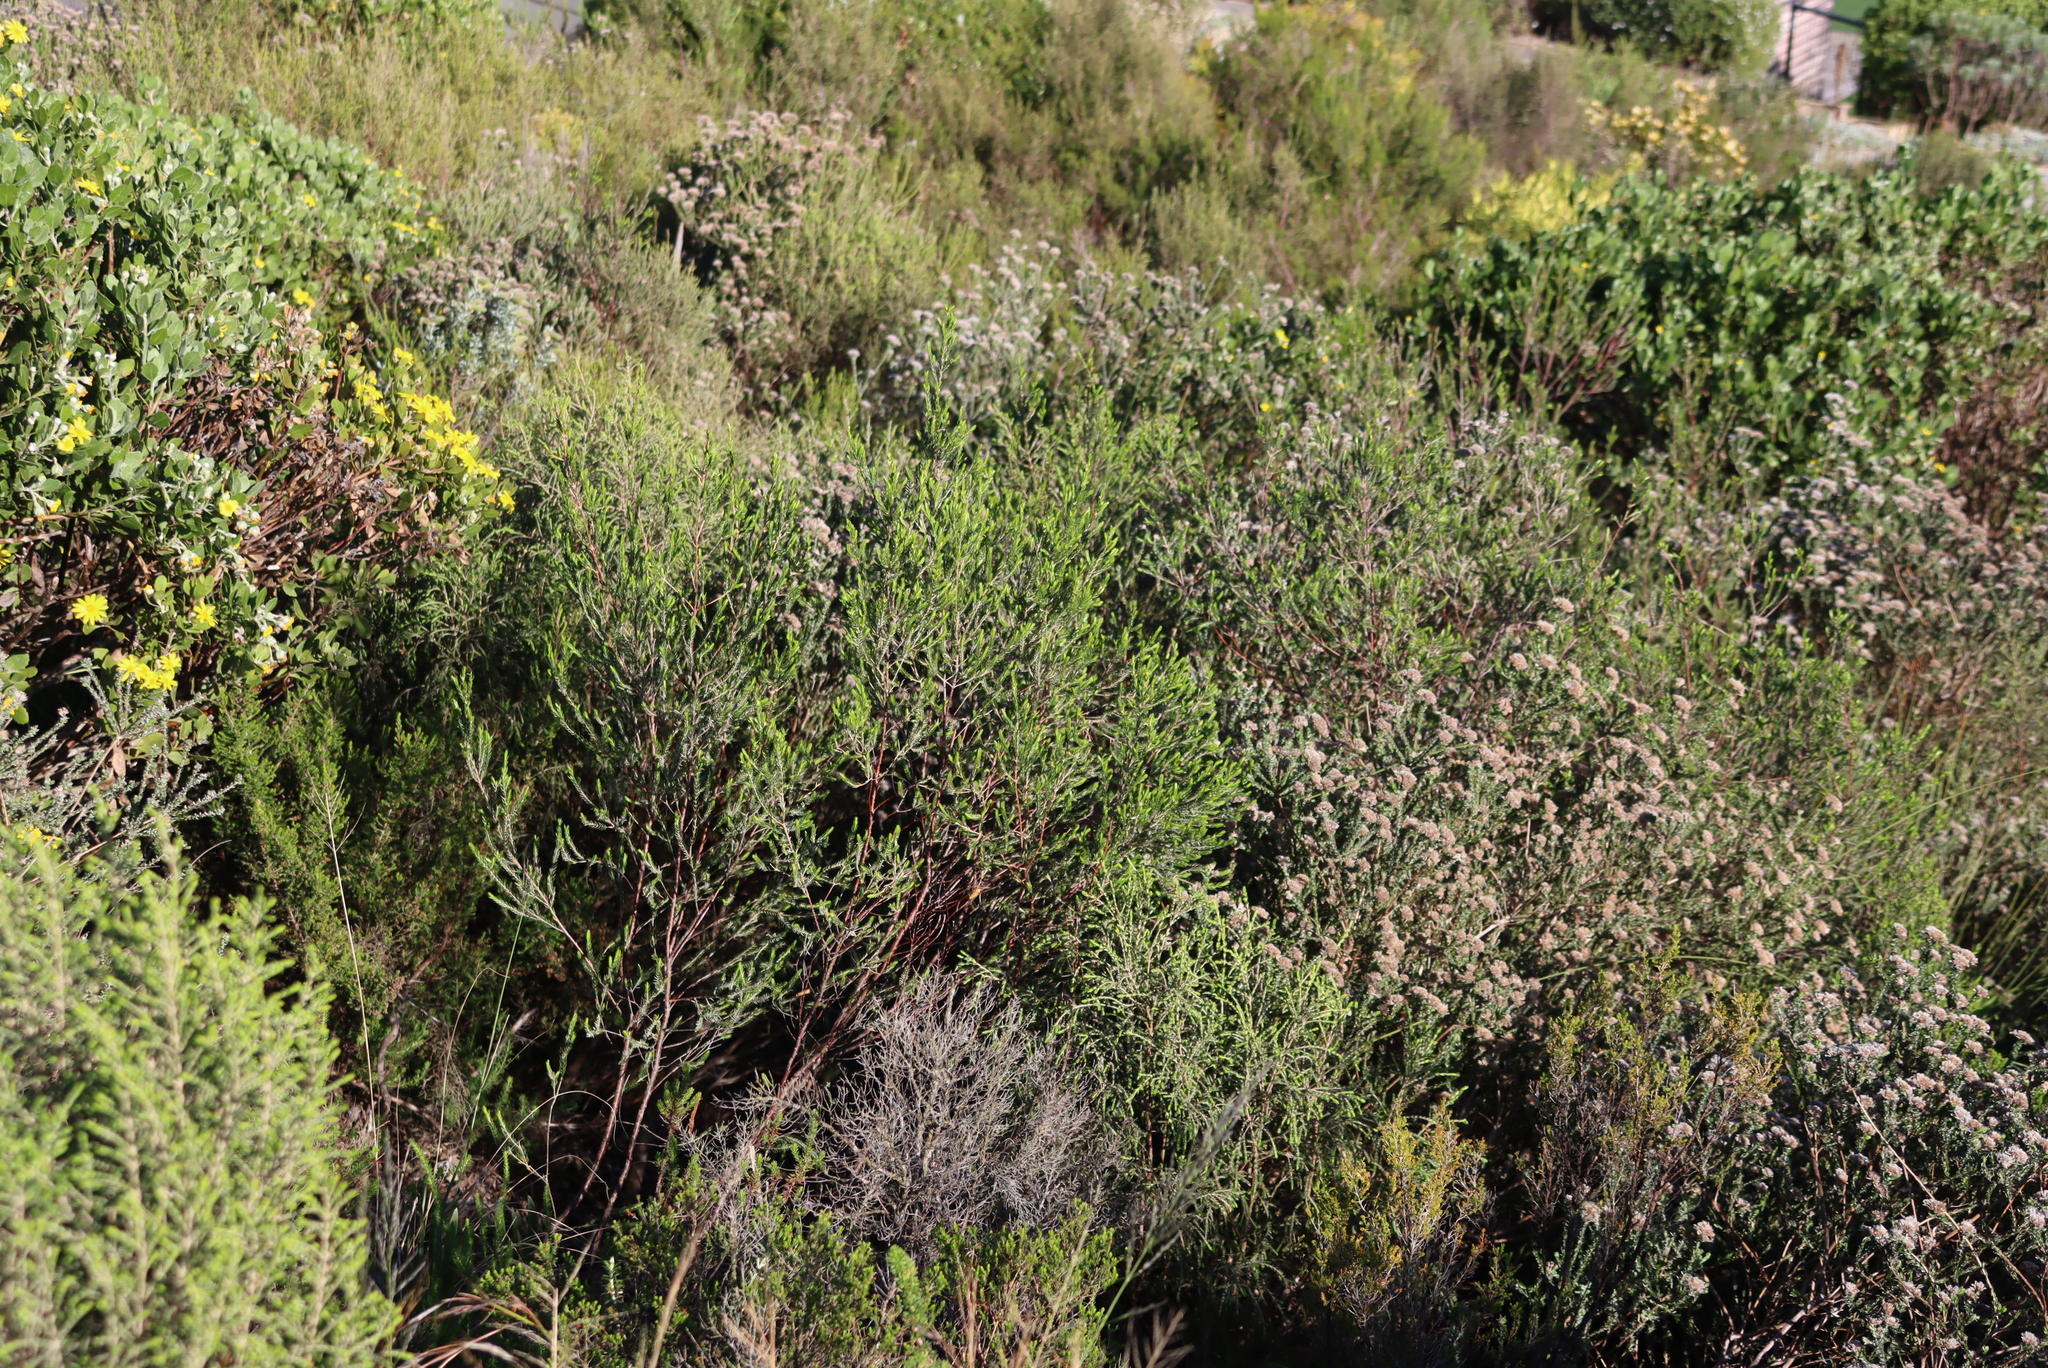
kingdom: Plantae
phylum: Tracheophyta
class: Magnoliopsida
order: Asterales
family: Asteraceae
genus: Metalasia
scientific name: Metalasia pungens
